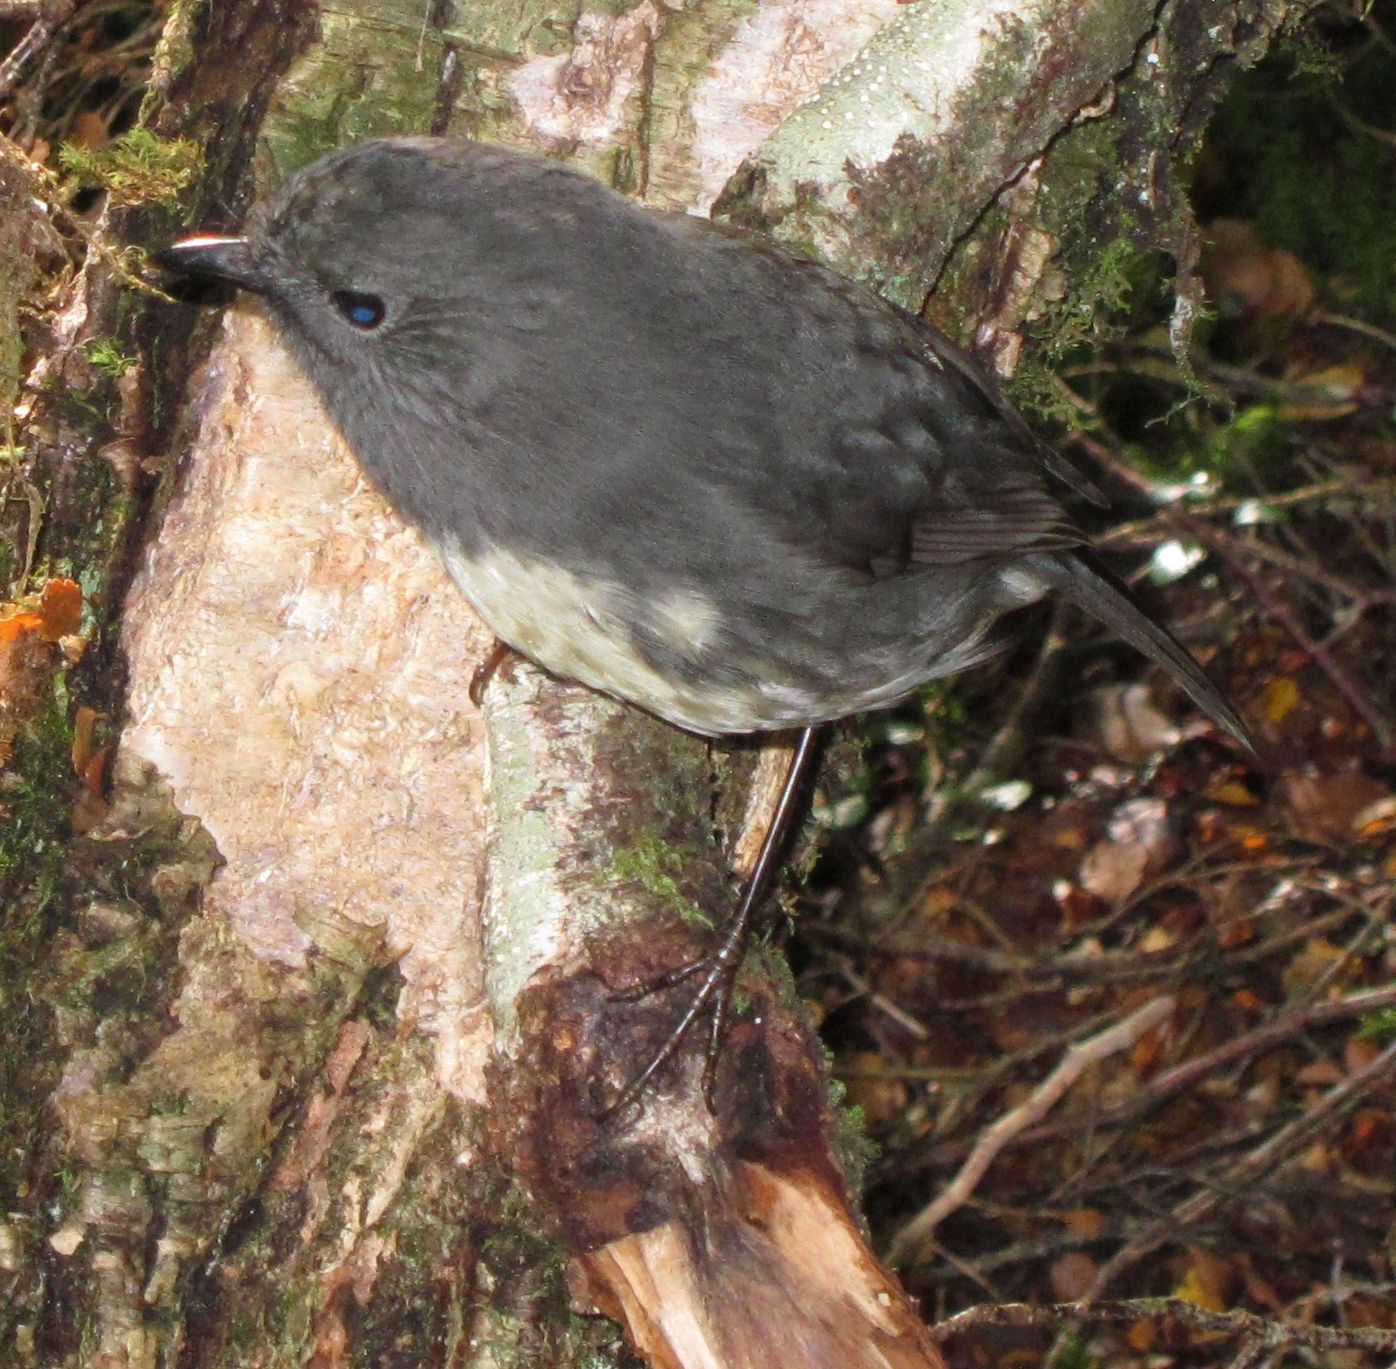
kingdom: Animalia
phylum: Chordata
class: Aves
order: Passeriformes
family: Petroicidae
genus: Petroica
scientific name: Petroica australis
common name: New zealand robin
